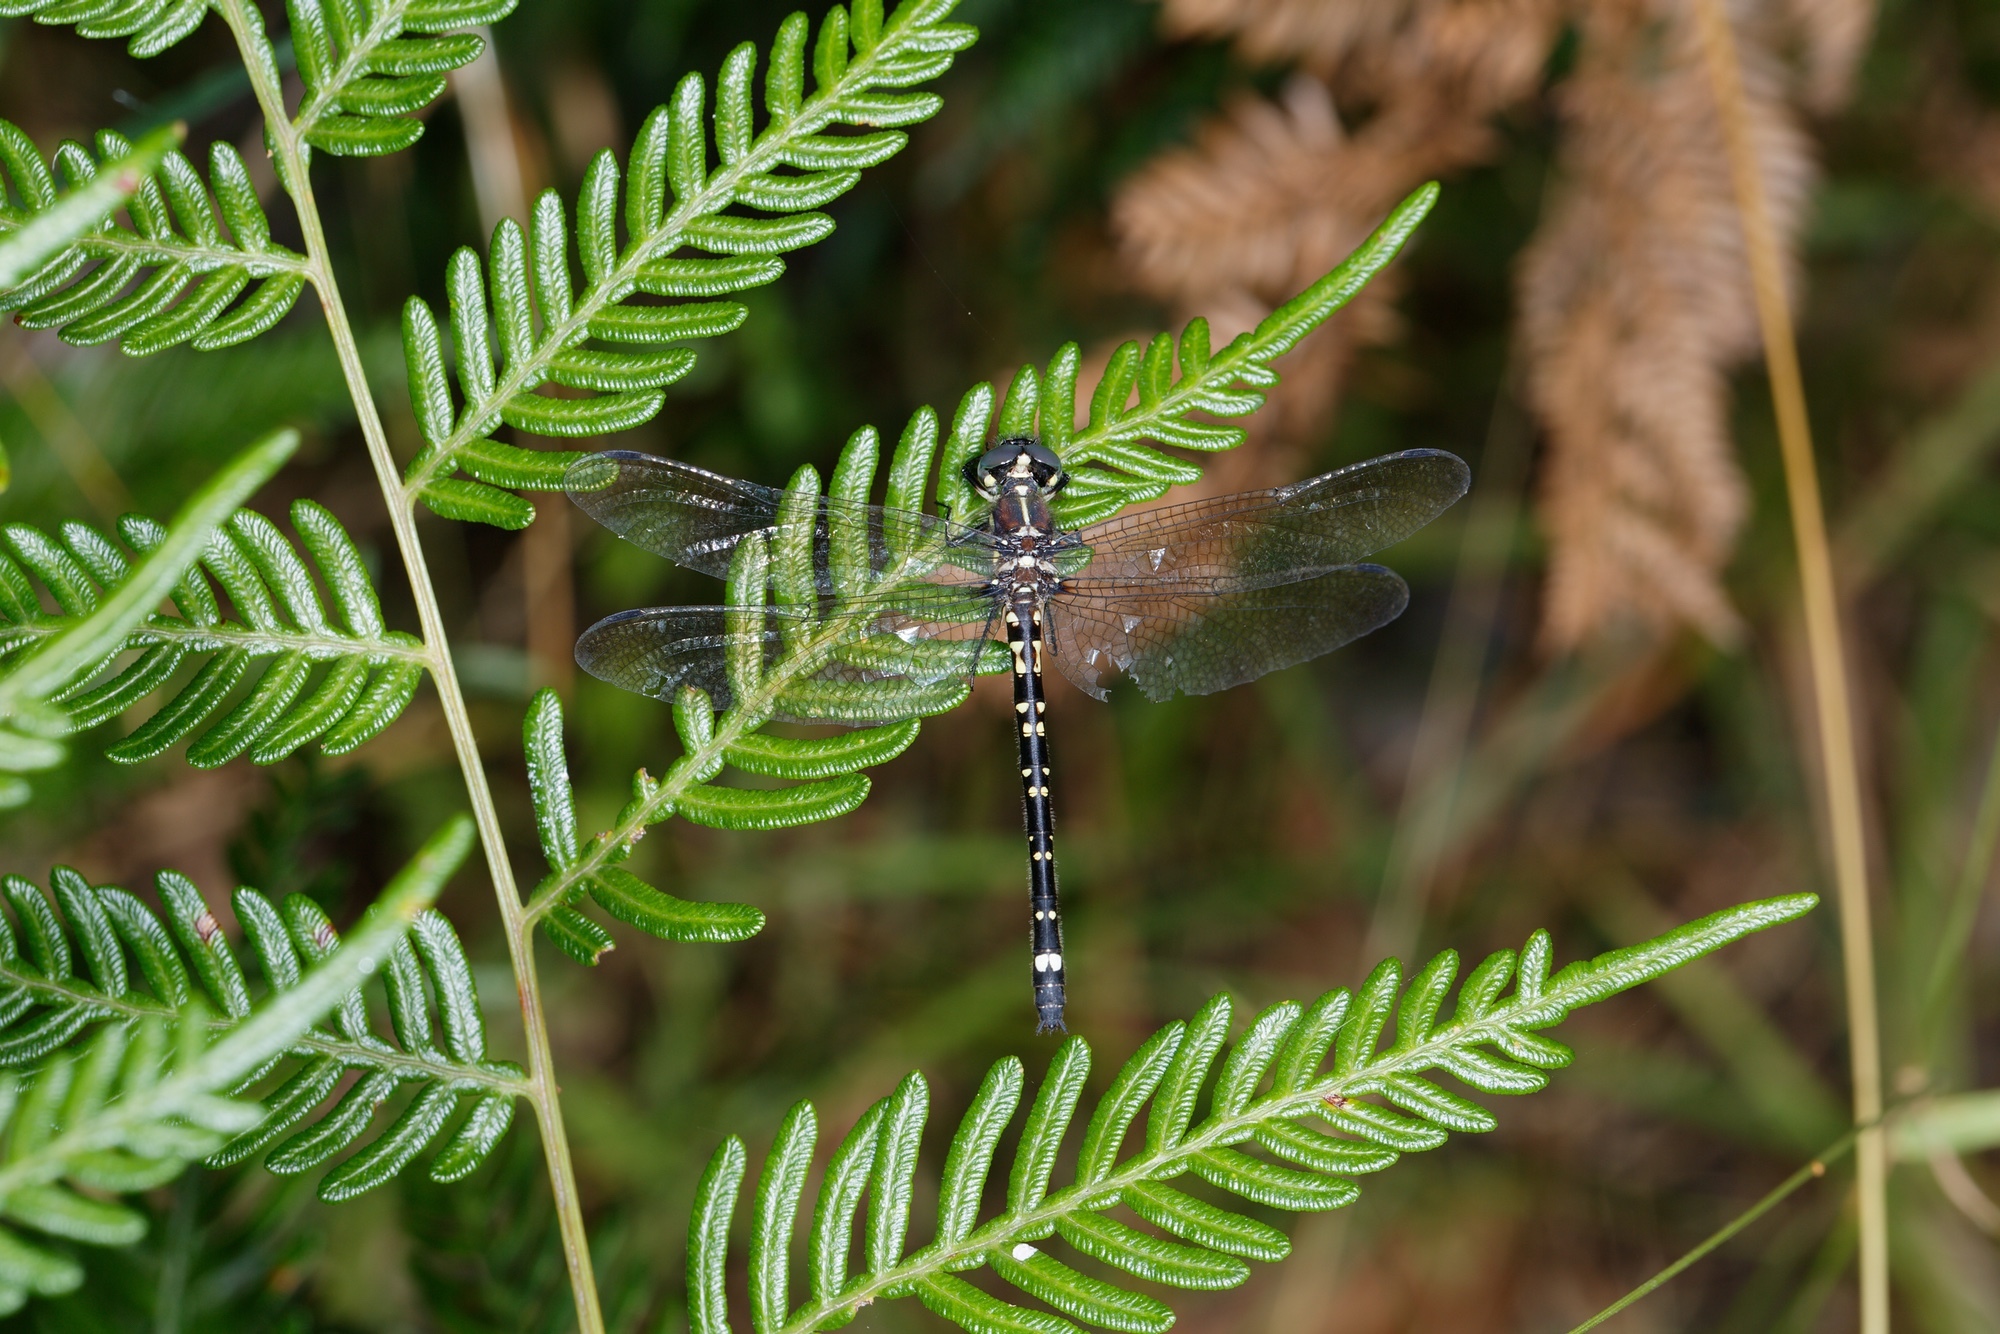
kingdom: Animalia
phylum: Arthropoda
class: Insecta
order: Odonata
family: Synthemistidae
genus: Eusynthemis
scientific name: Eusynthemis brevistyla
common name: Small tigertail
